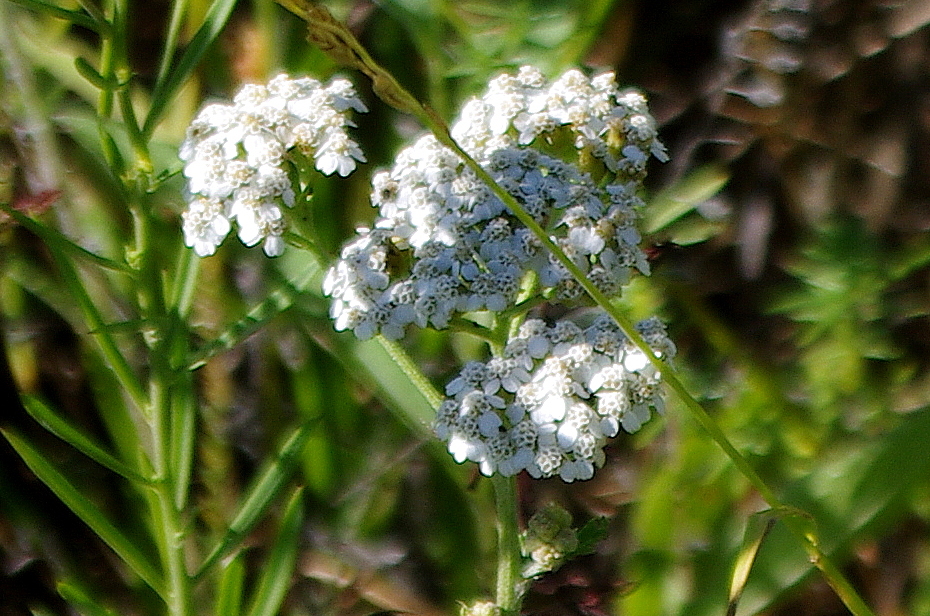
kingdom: Plantae
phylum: Tracheophyta
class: Magnoliopsida
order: Asterales
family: Asteraceae
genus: Achillea
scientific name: Achillea millefolium
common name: Yarrow
